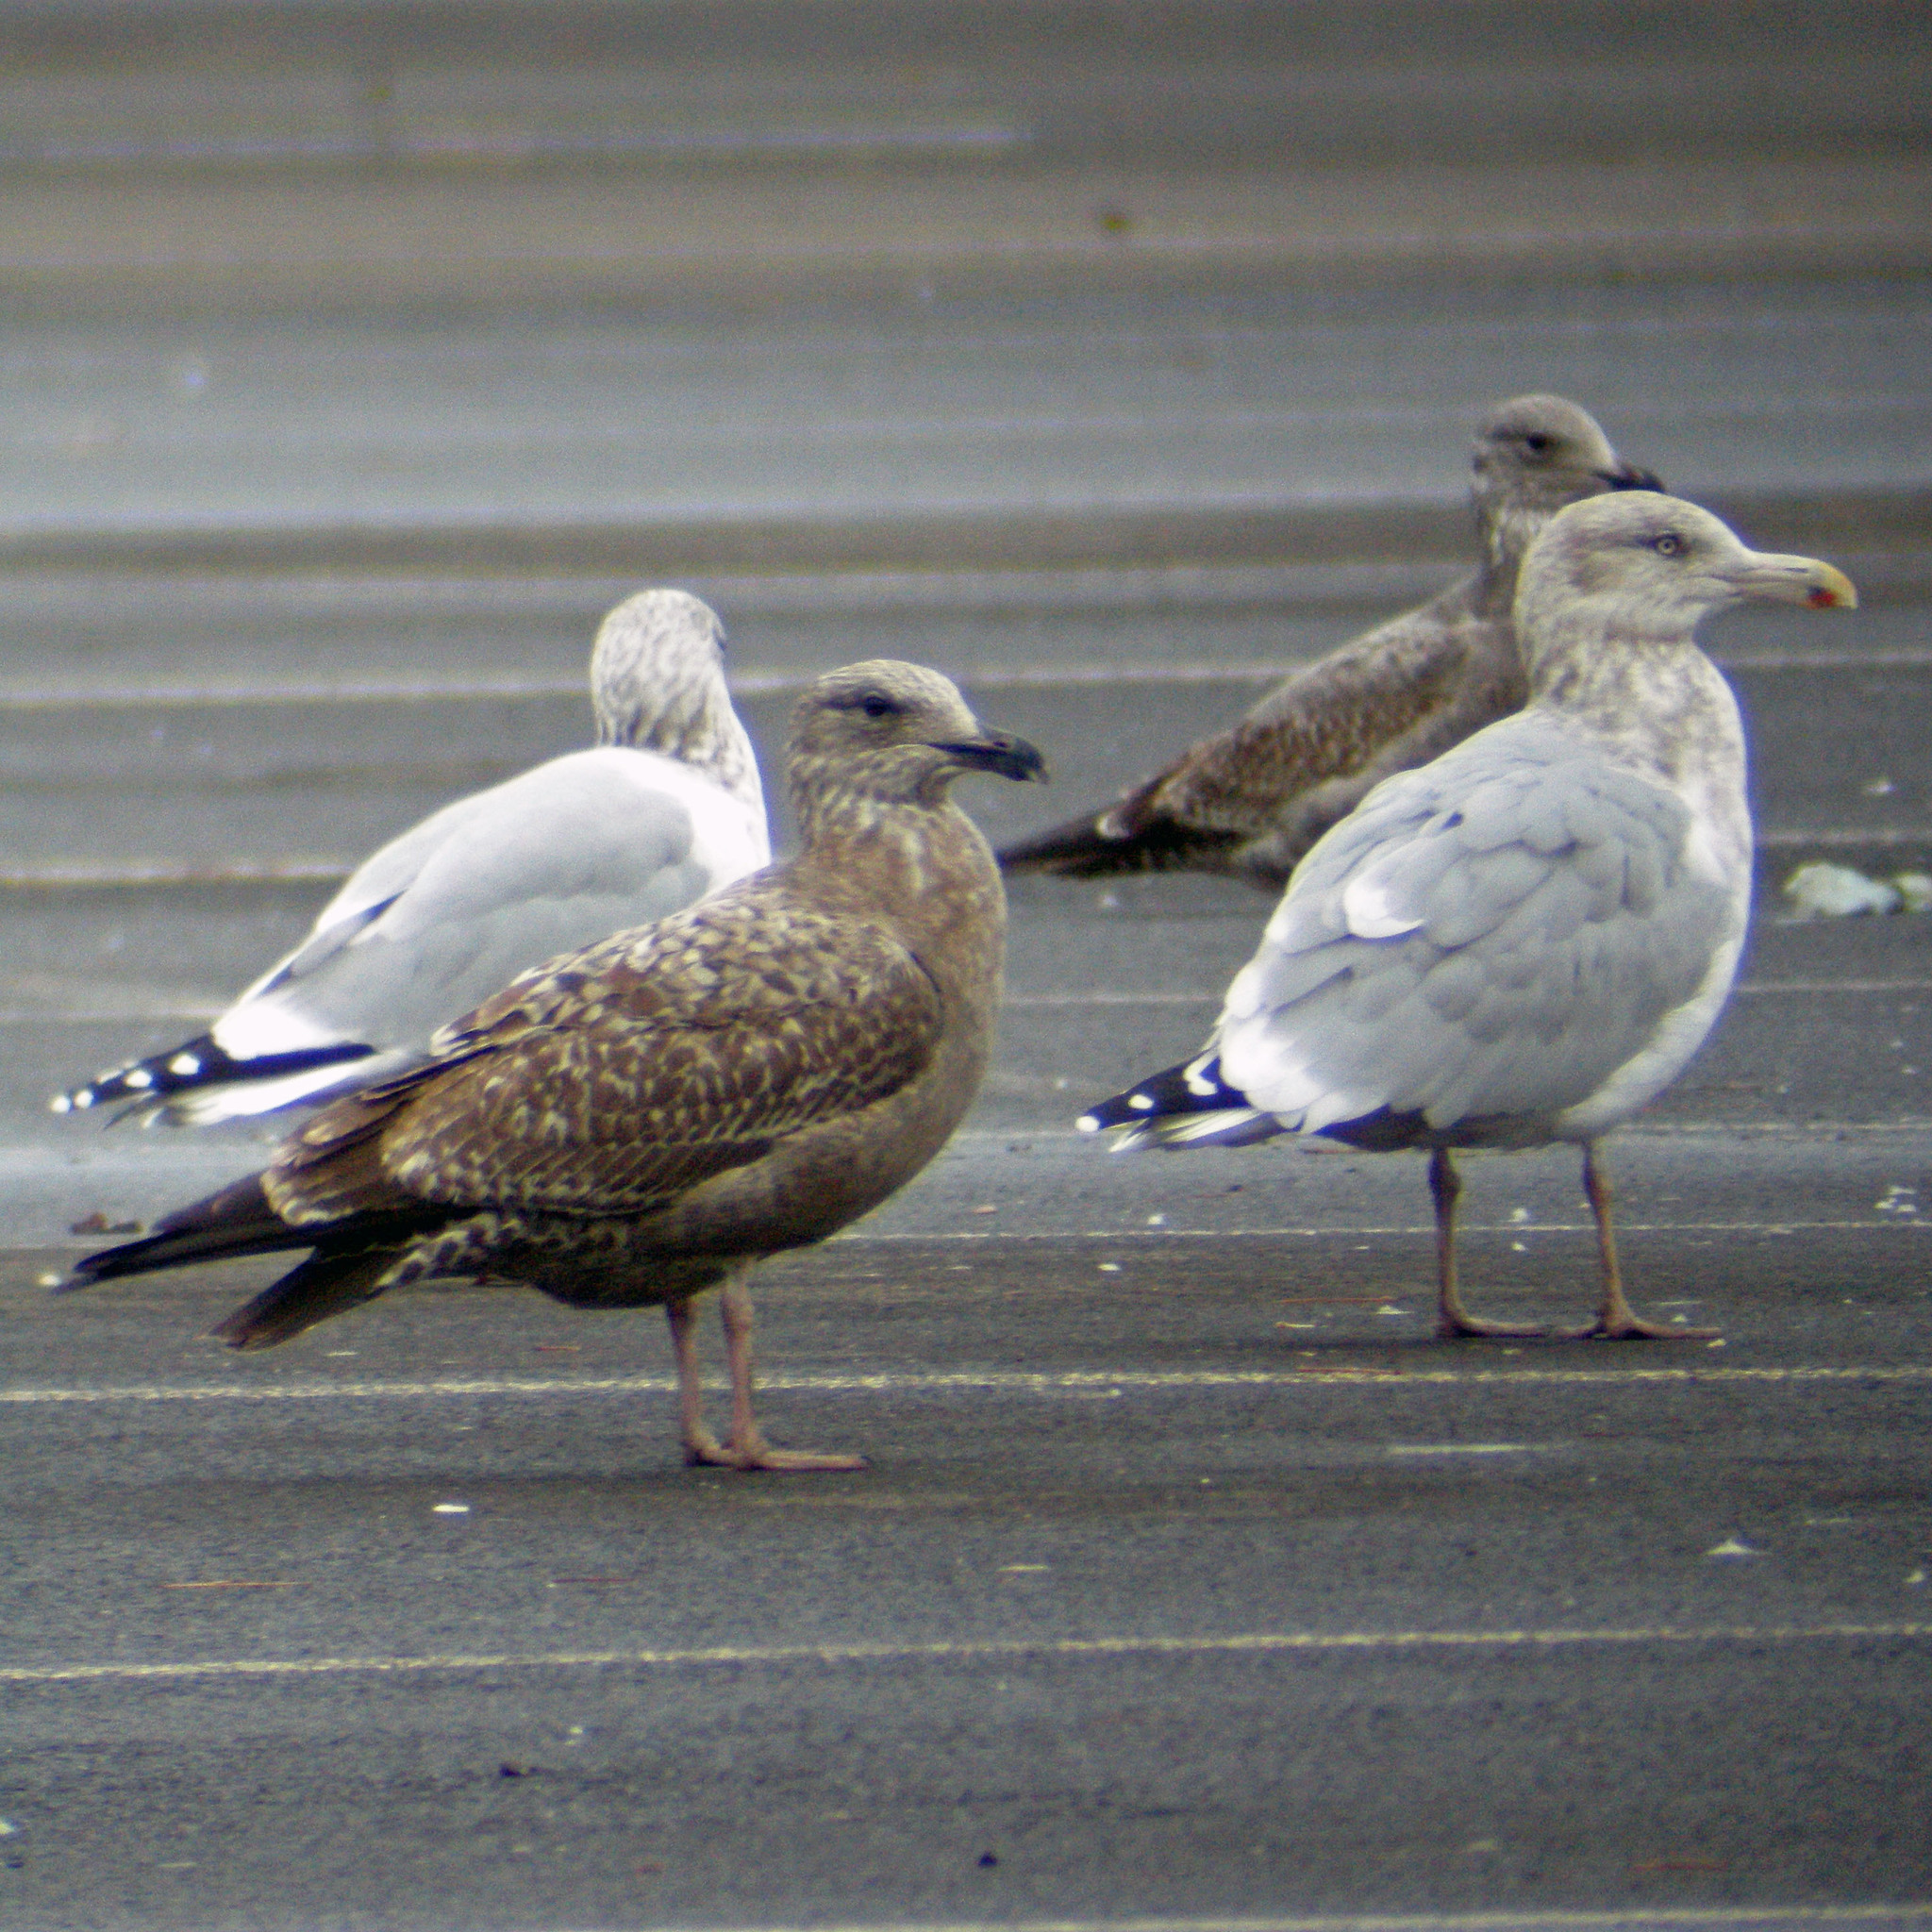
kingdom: Animalia
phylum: Chordata
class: Aves
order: Charadriiformes
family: Laridae
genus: Larus
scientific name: Larus argentatus
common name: Herring gull
